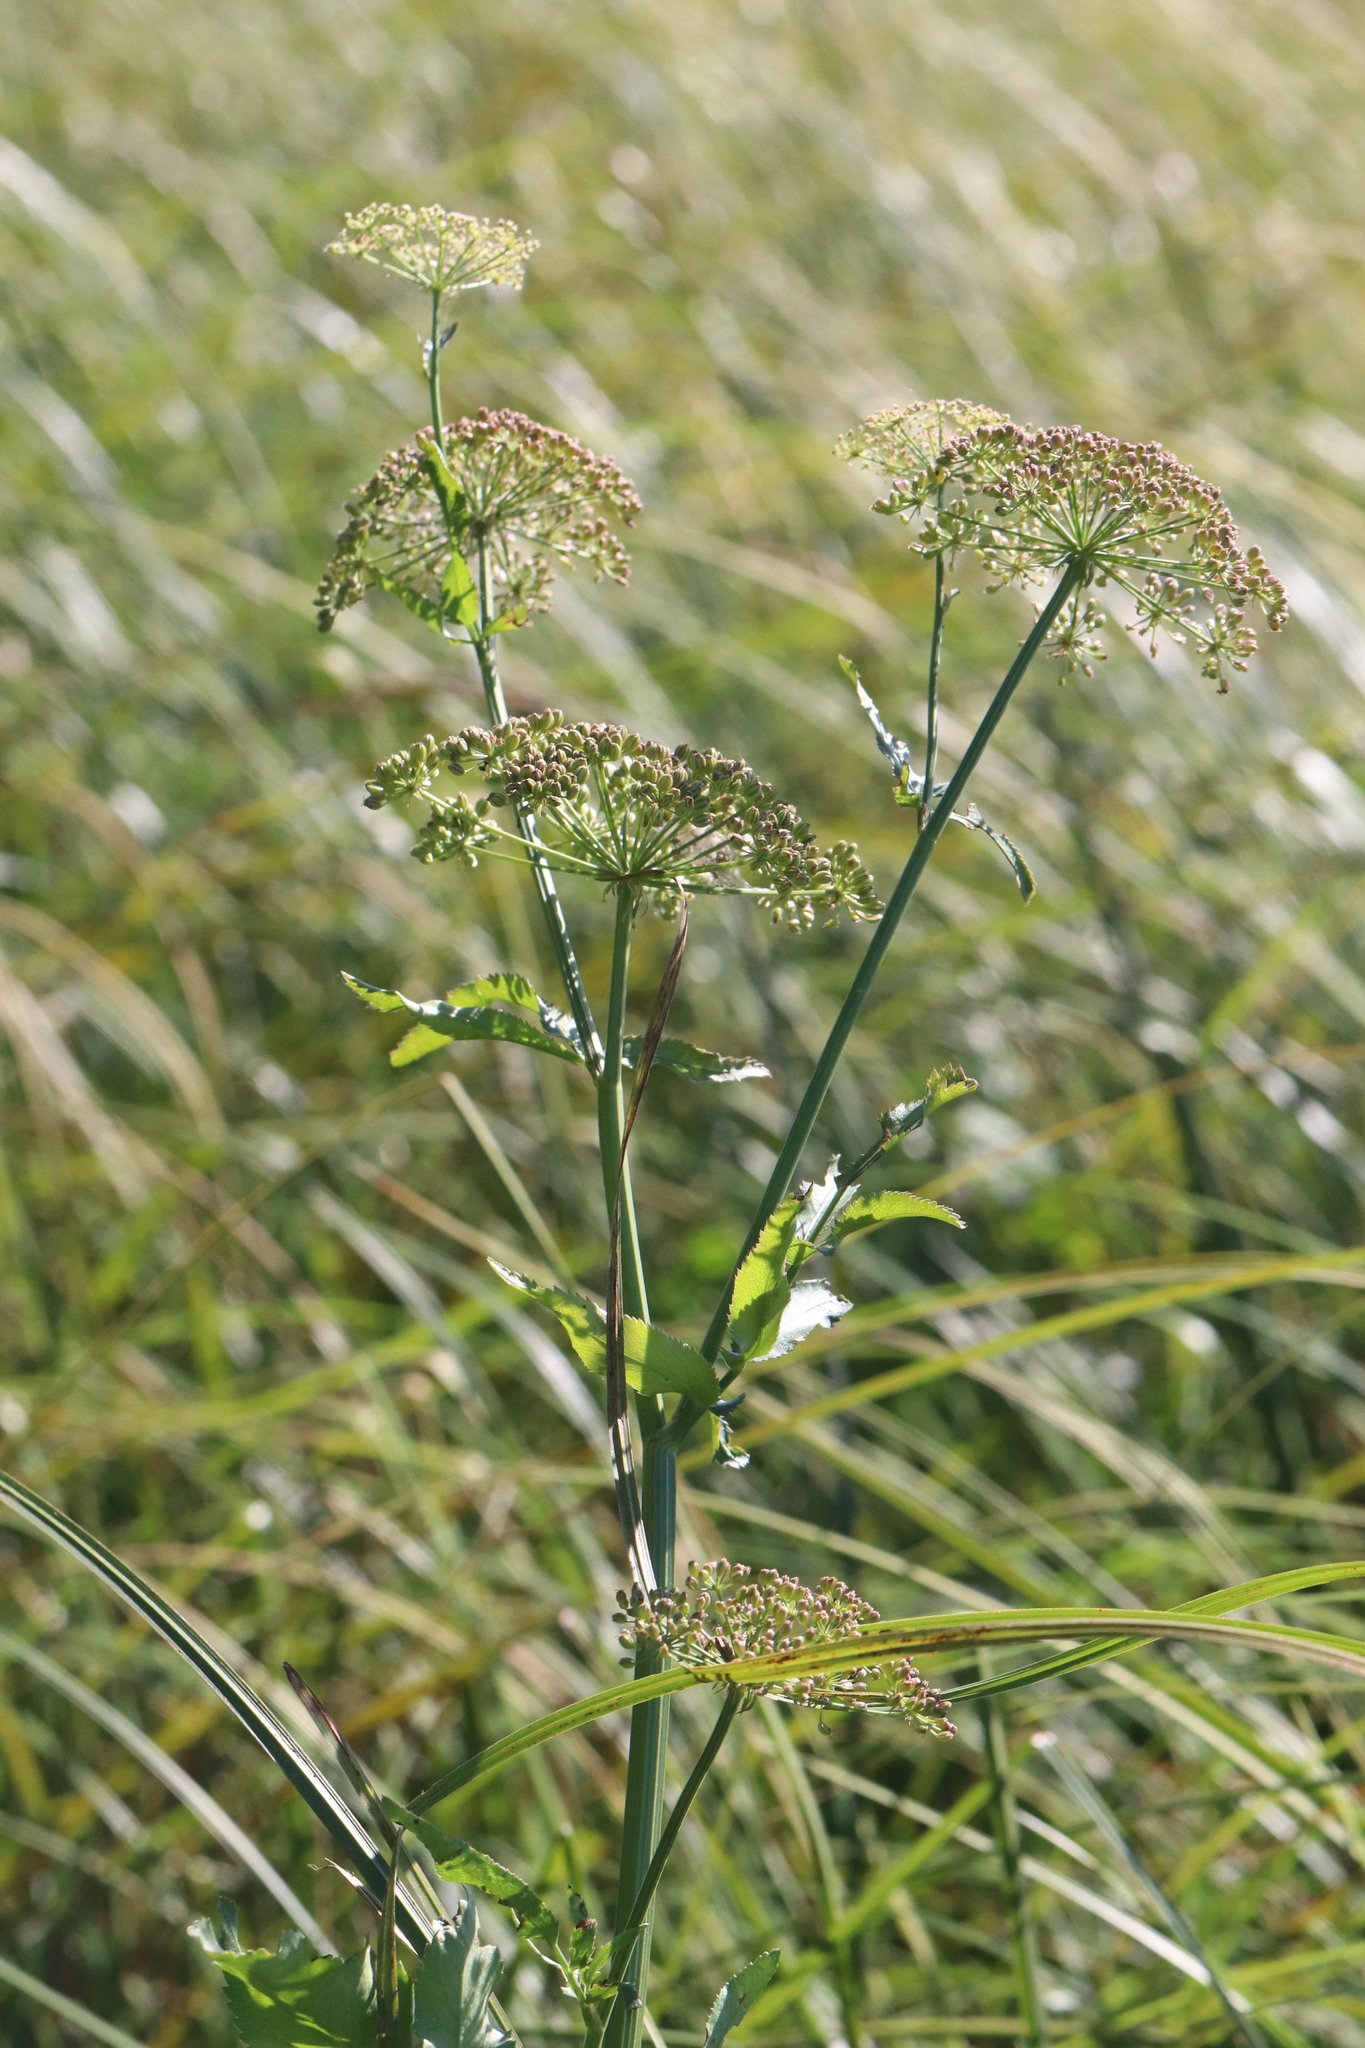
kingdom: Plantae
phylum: Tracheophyta
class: Magnoliopsida
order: Apiales
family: Apiaceae
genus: Sium
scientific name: Sium latifolium
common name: Greater water-parsnip
